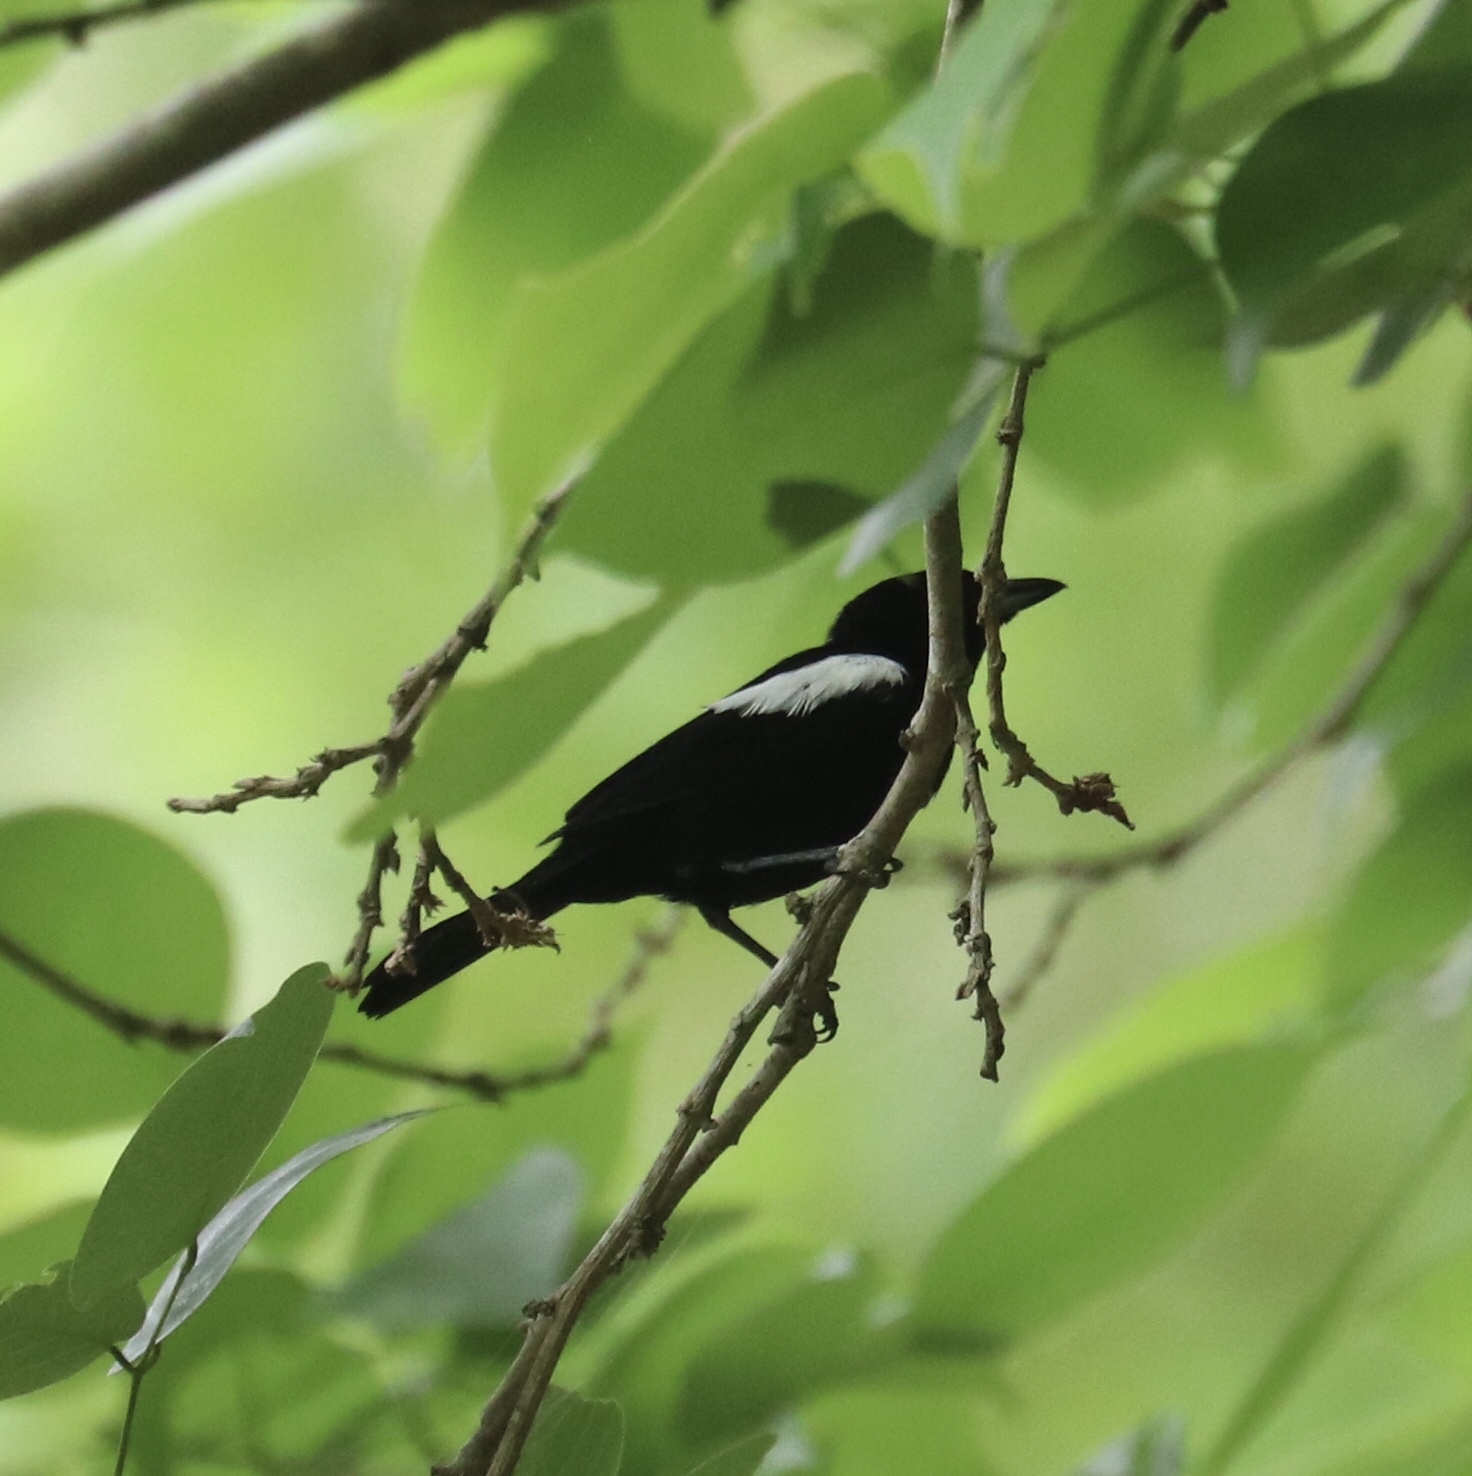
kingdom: Animalia
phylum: Chordata
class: Aves
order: Passeriformes
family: Thraupidae
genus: Loriotus
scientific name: Loriotus luctuosus
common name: White-shouldered tanager
